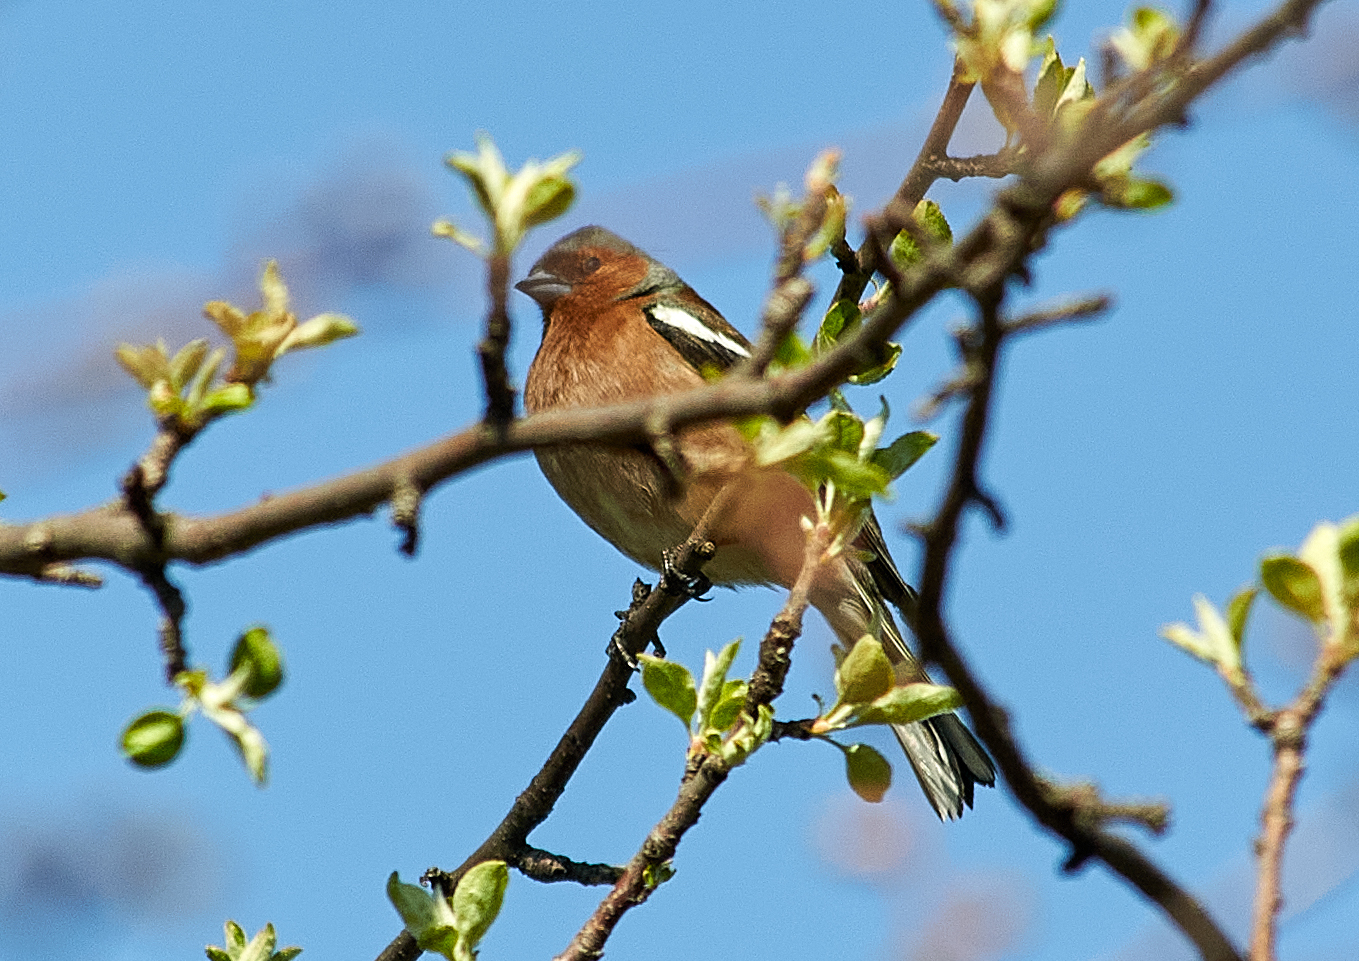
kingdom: Animalia
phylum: Chordata
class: Aves
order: Passeriformes
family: Fringillidae
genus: Fringilla
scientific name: Fringilla coelebs
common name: Common chaffinch
